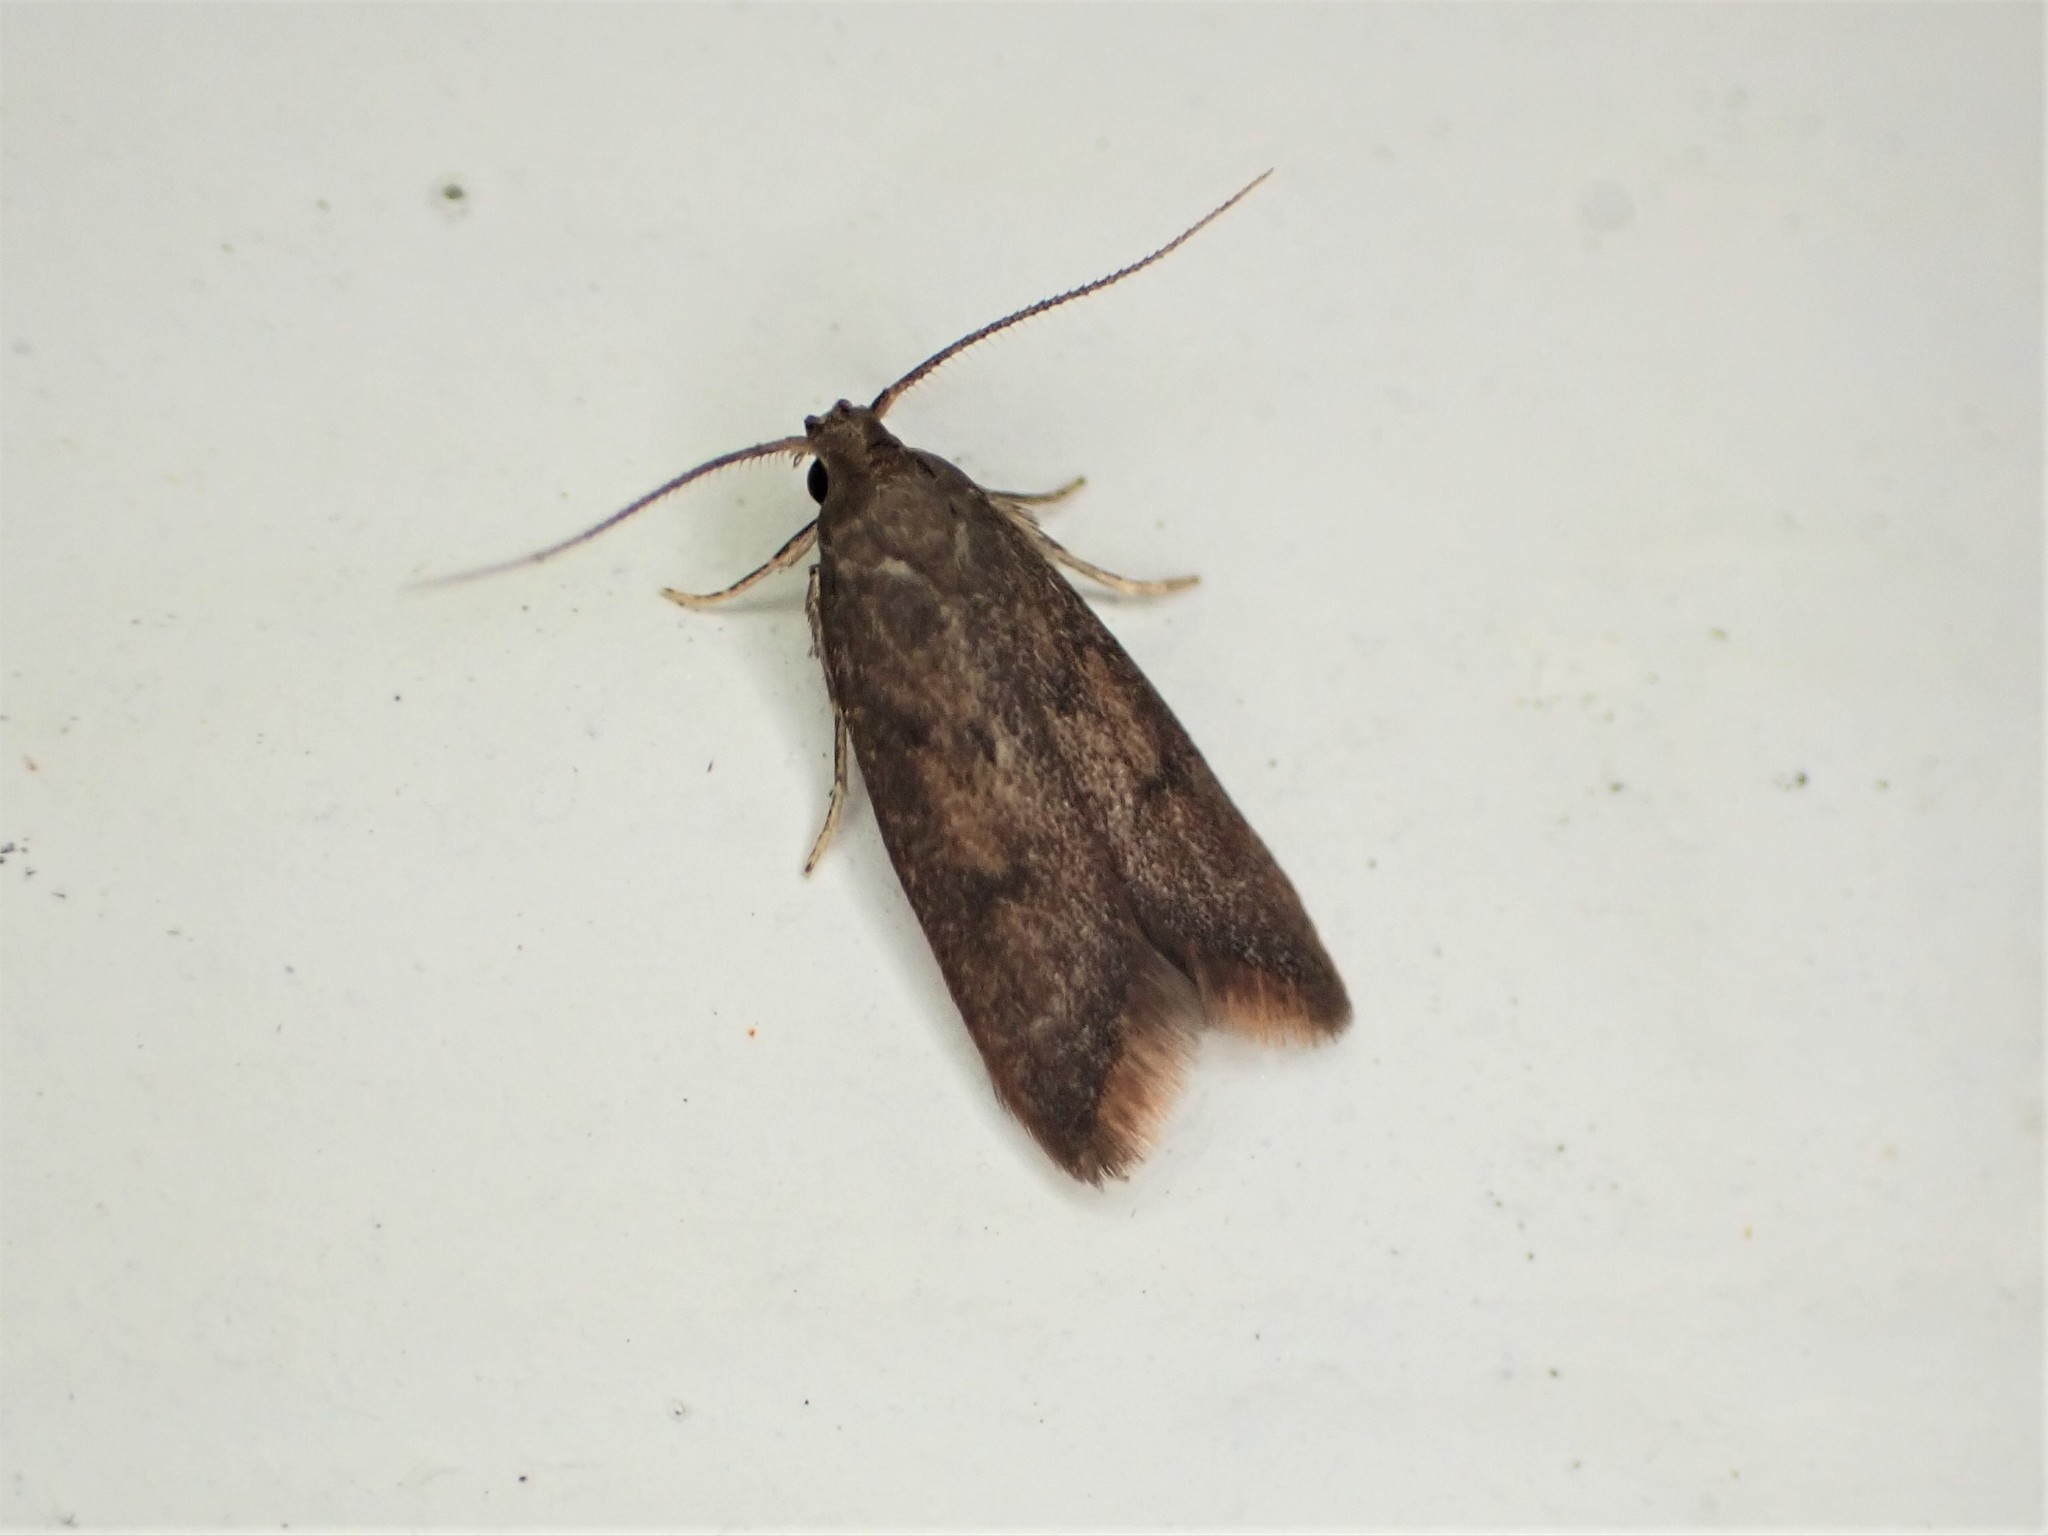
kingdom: Animalia
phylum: Arthropoda
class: Insecta
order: Lepidoptera
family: Oecophoridae
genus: Tachystola
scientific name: Tachystola acroxantha
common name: Ruddy streak
